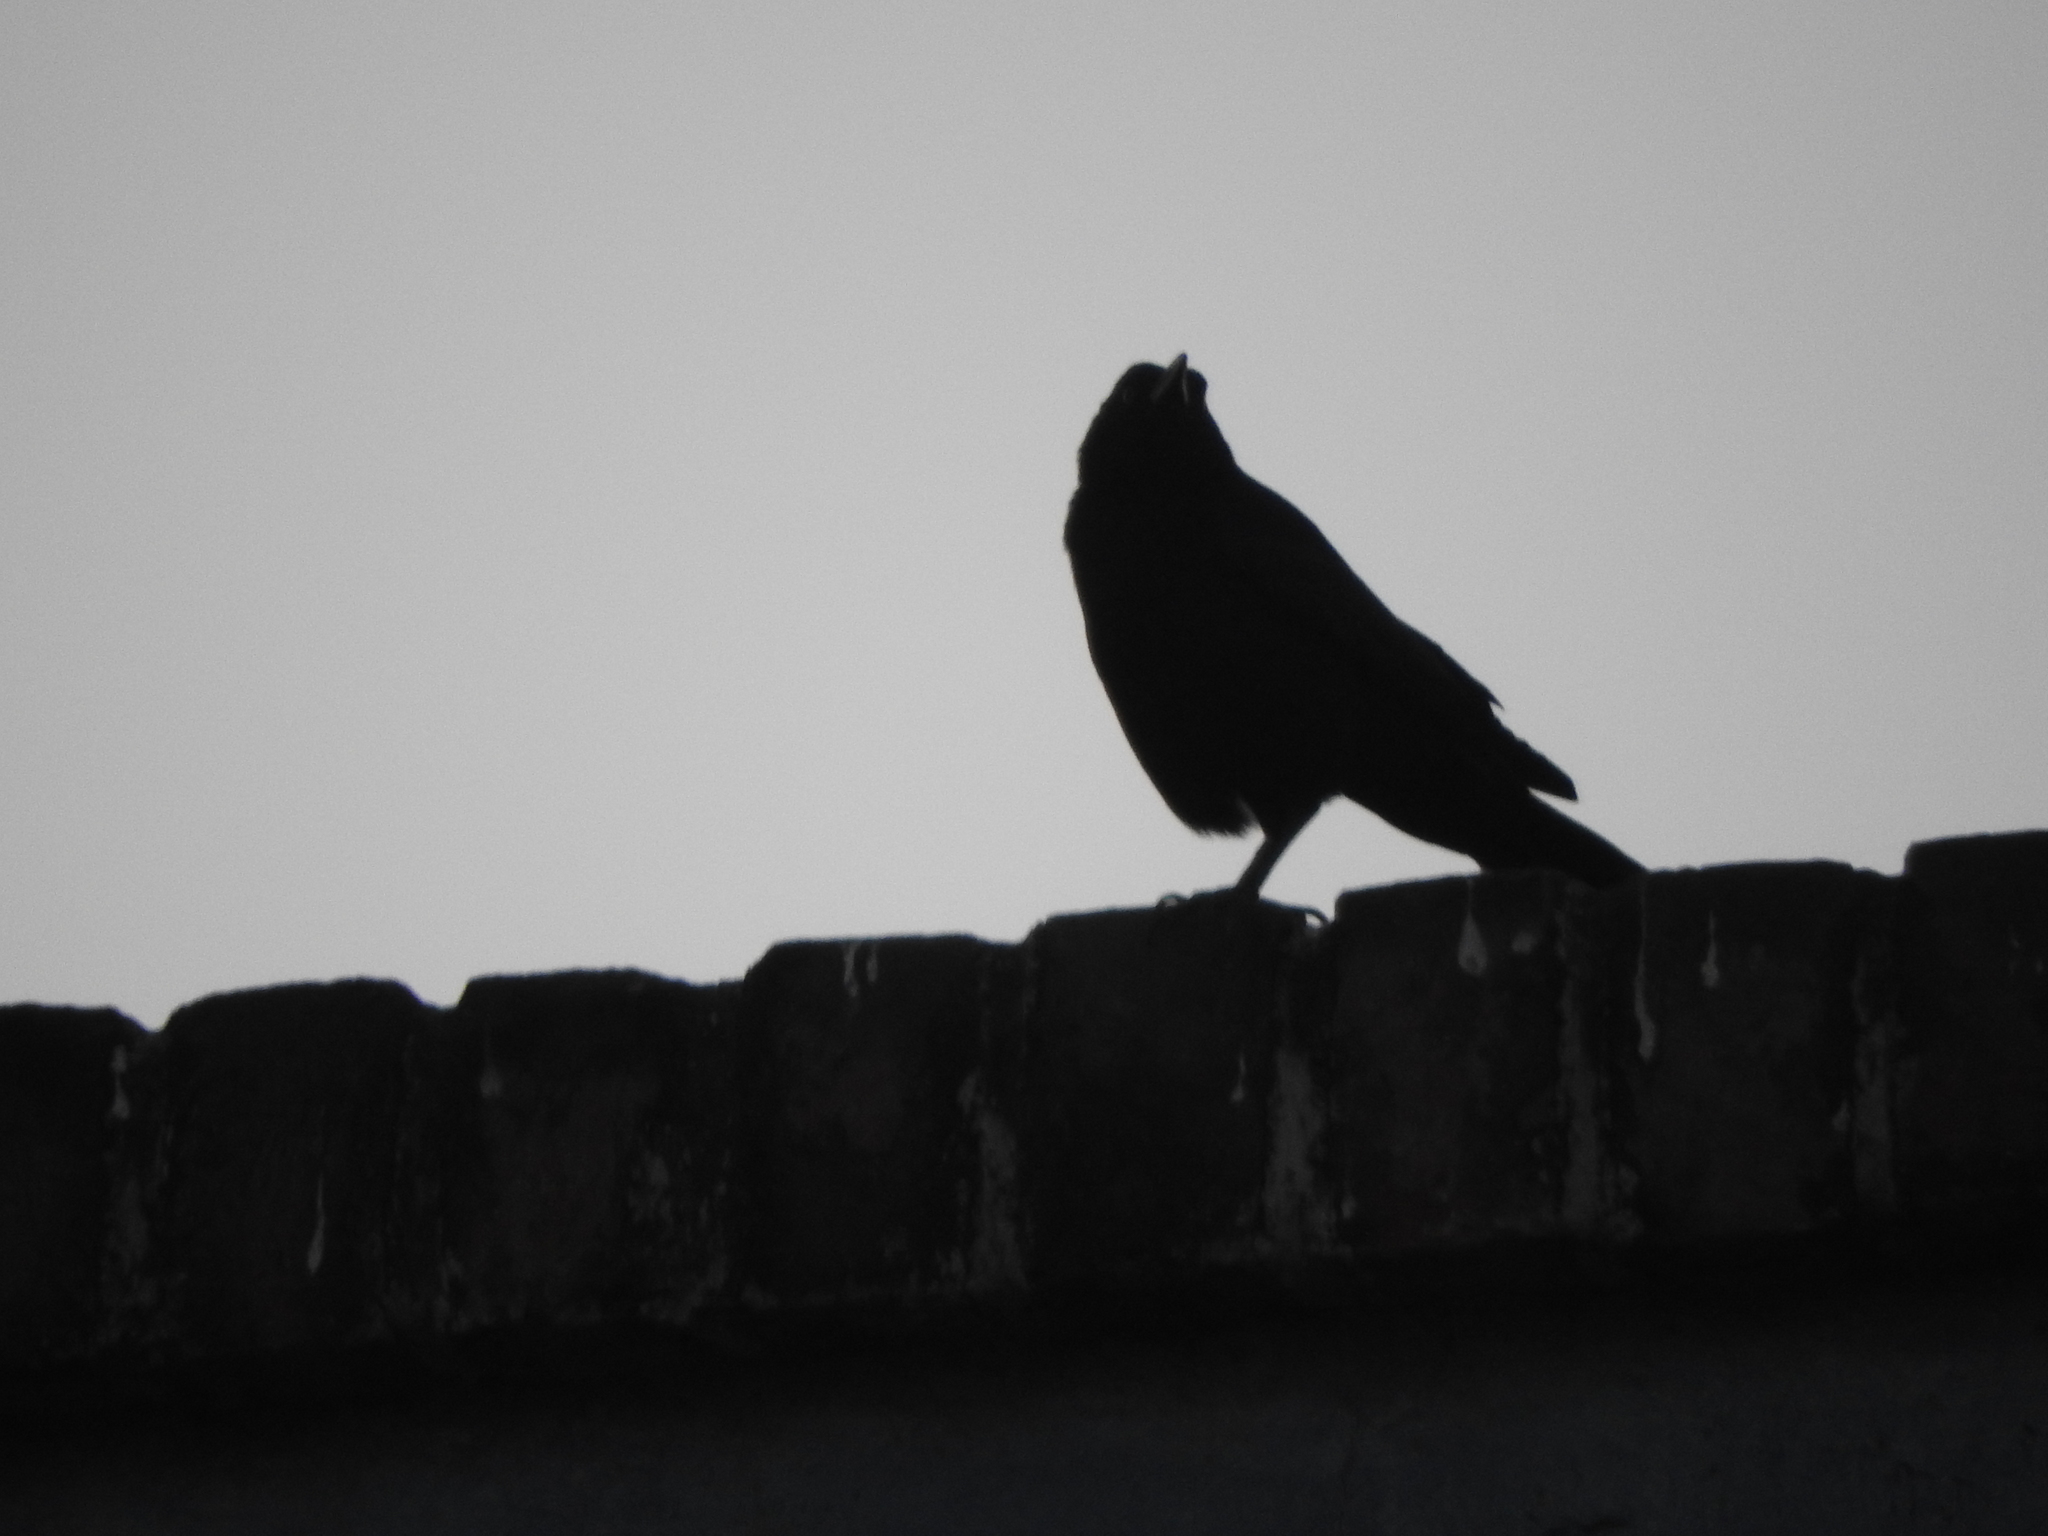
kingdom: Animalia
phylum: Chordata
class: Aves
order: Passeriformes
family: Icteridae
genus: Quiscalus
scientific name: Quiscalus mexicanus
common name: Great-tailed grackle
